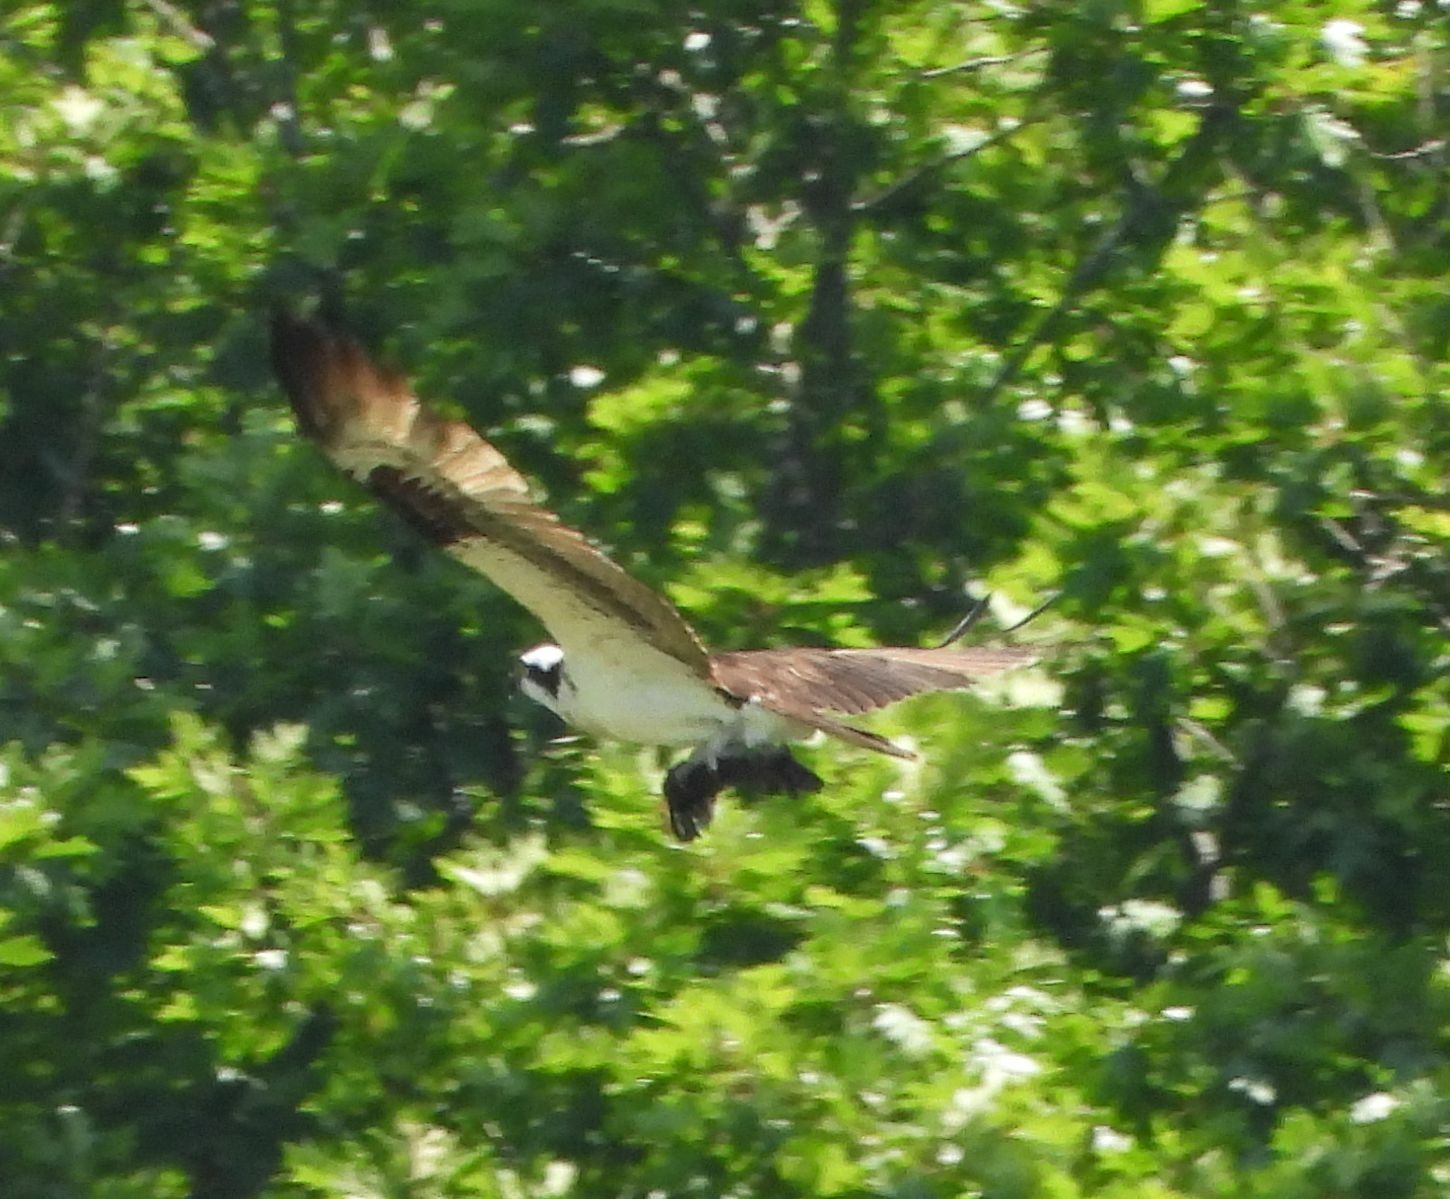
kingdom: Animalia
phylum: Chordata
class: Aves
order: Accipitriformes
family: Pandionidae
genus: Pandion
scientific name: Pandion haliaetus
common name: Osprey
